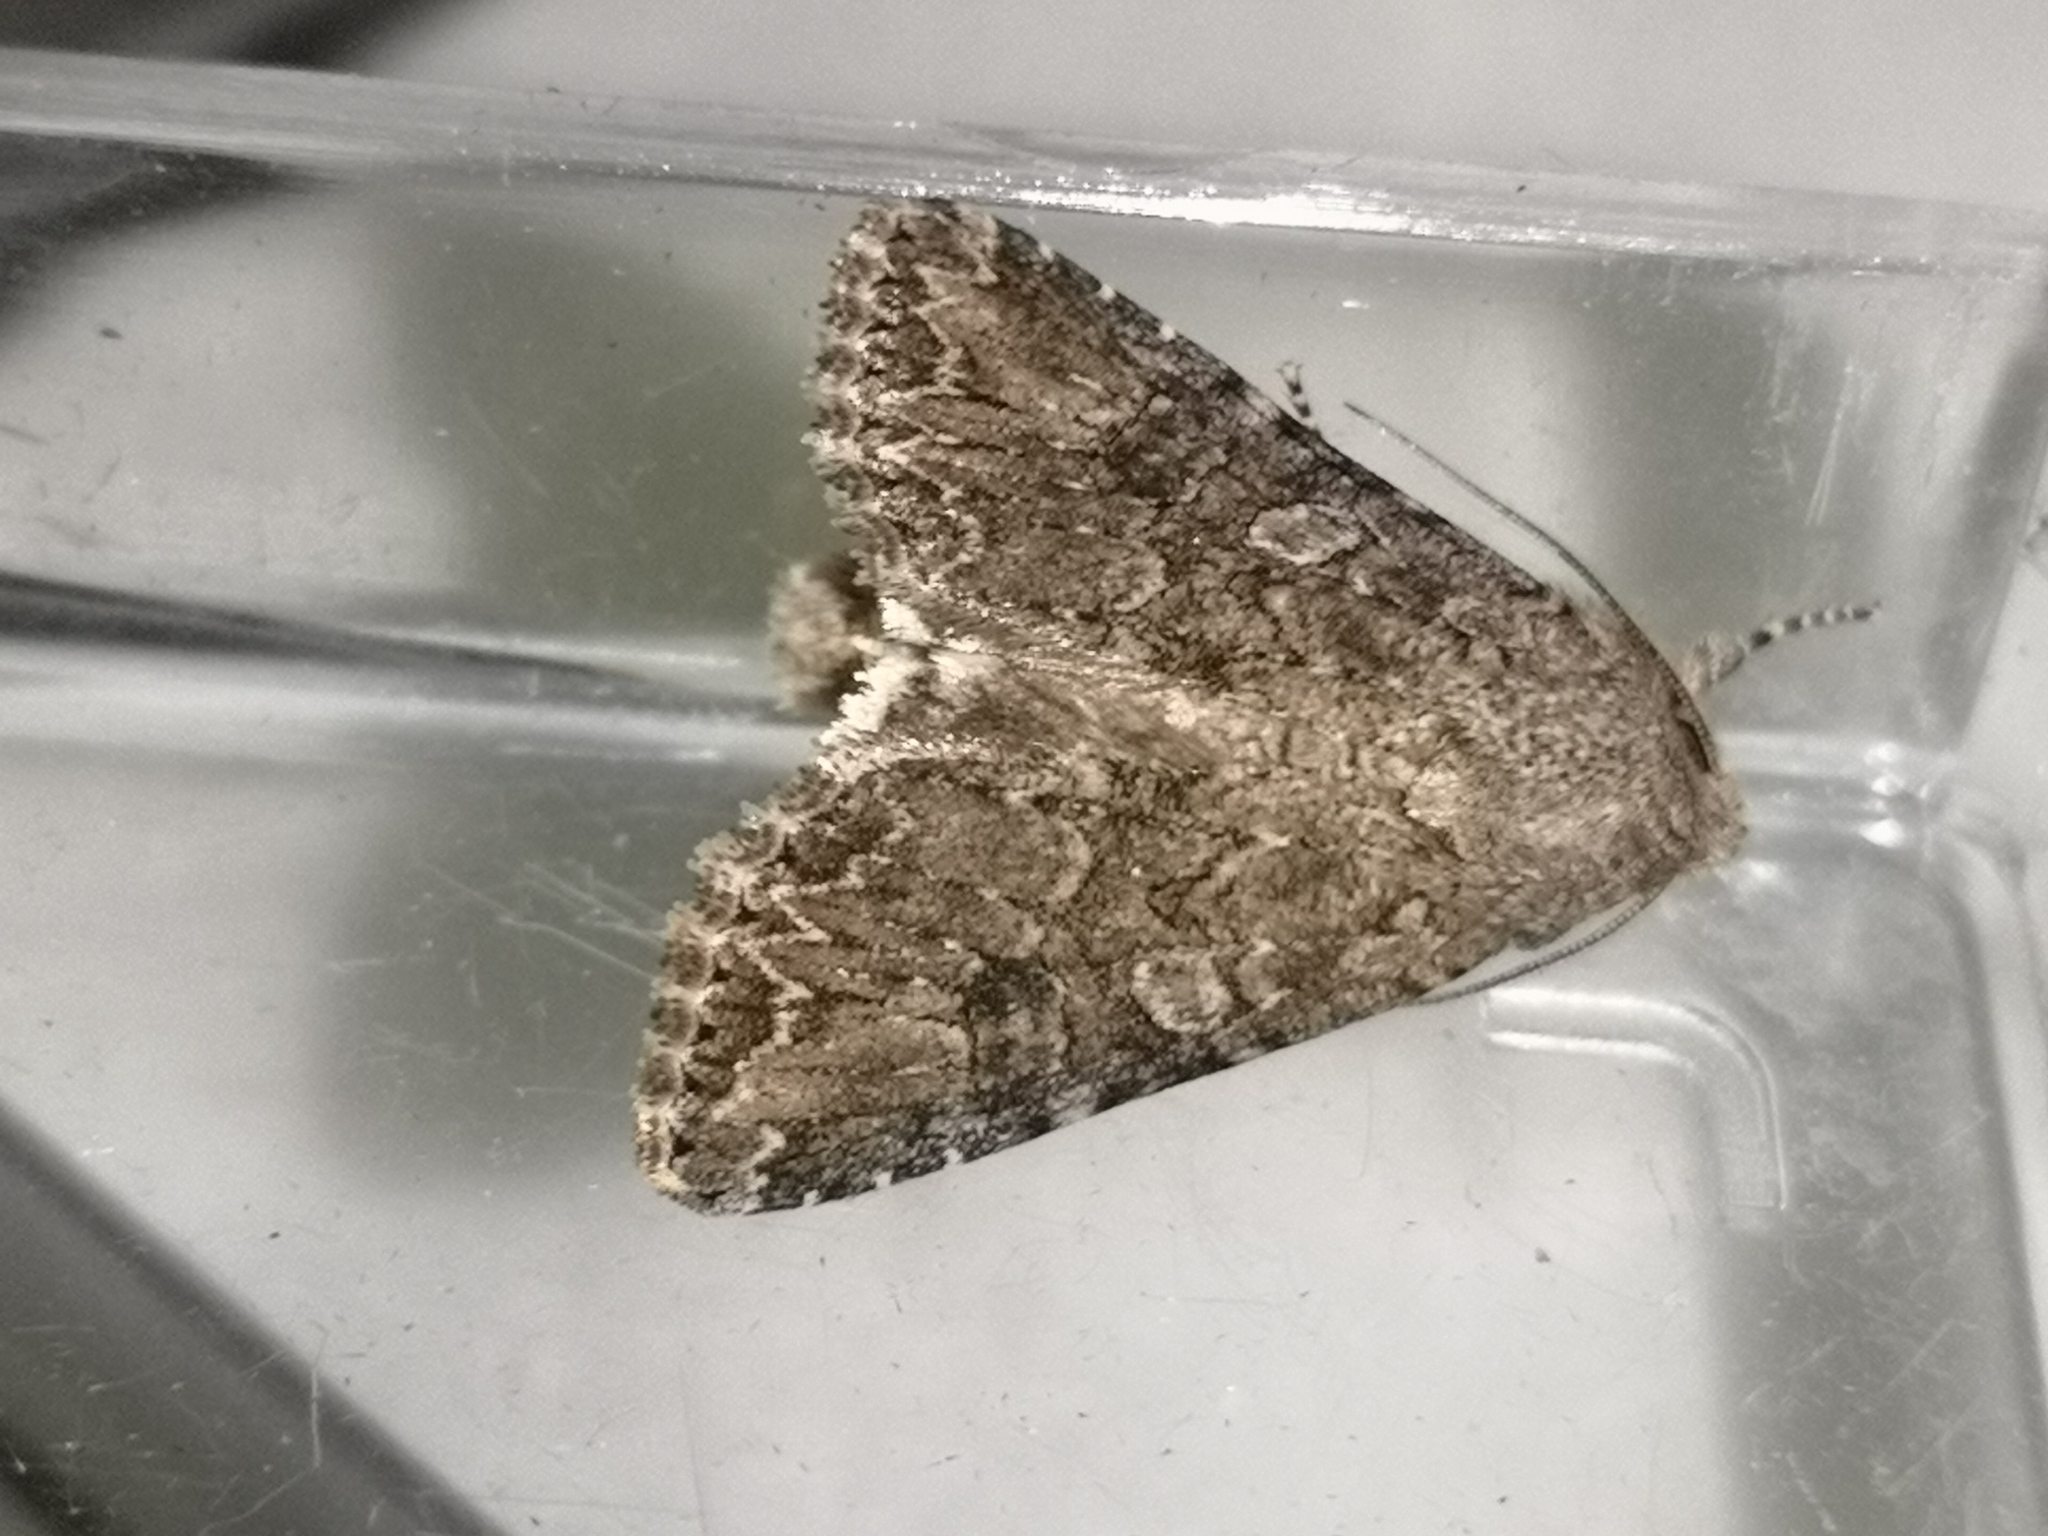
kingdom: Animalia
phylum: Arthropoda
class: Insecta
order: Lepidoptera
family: Noctuidae
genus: Anarta
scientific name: Anarta trifolii
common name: Clover cutworm moth
